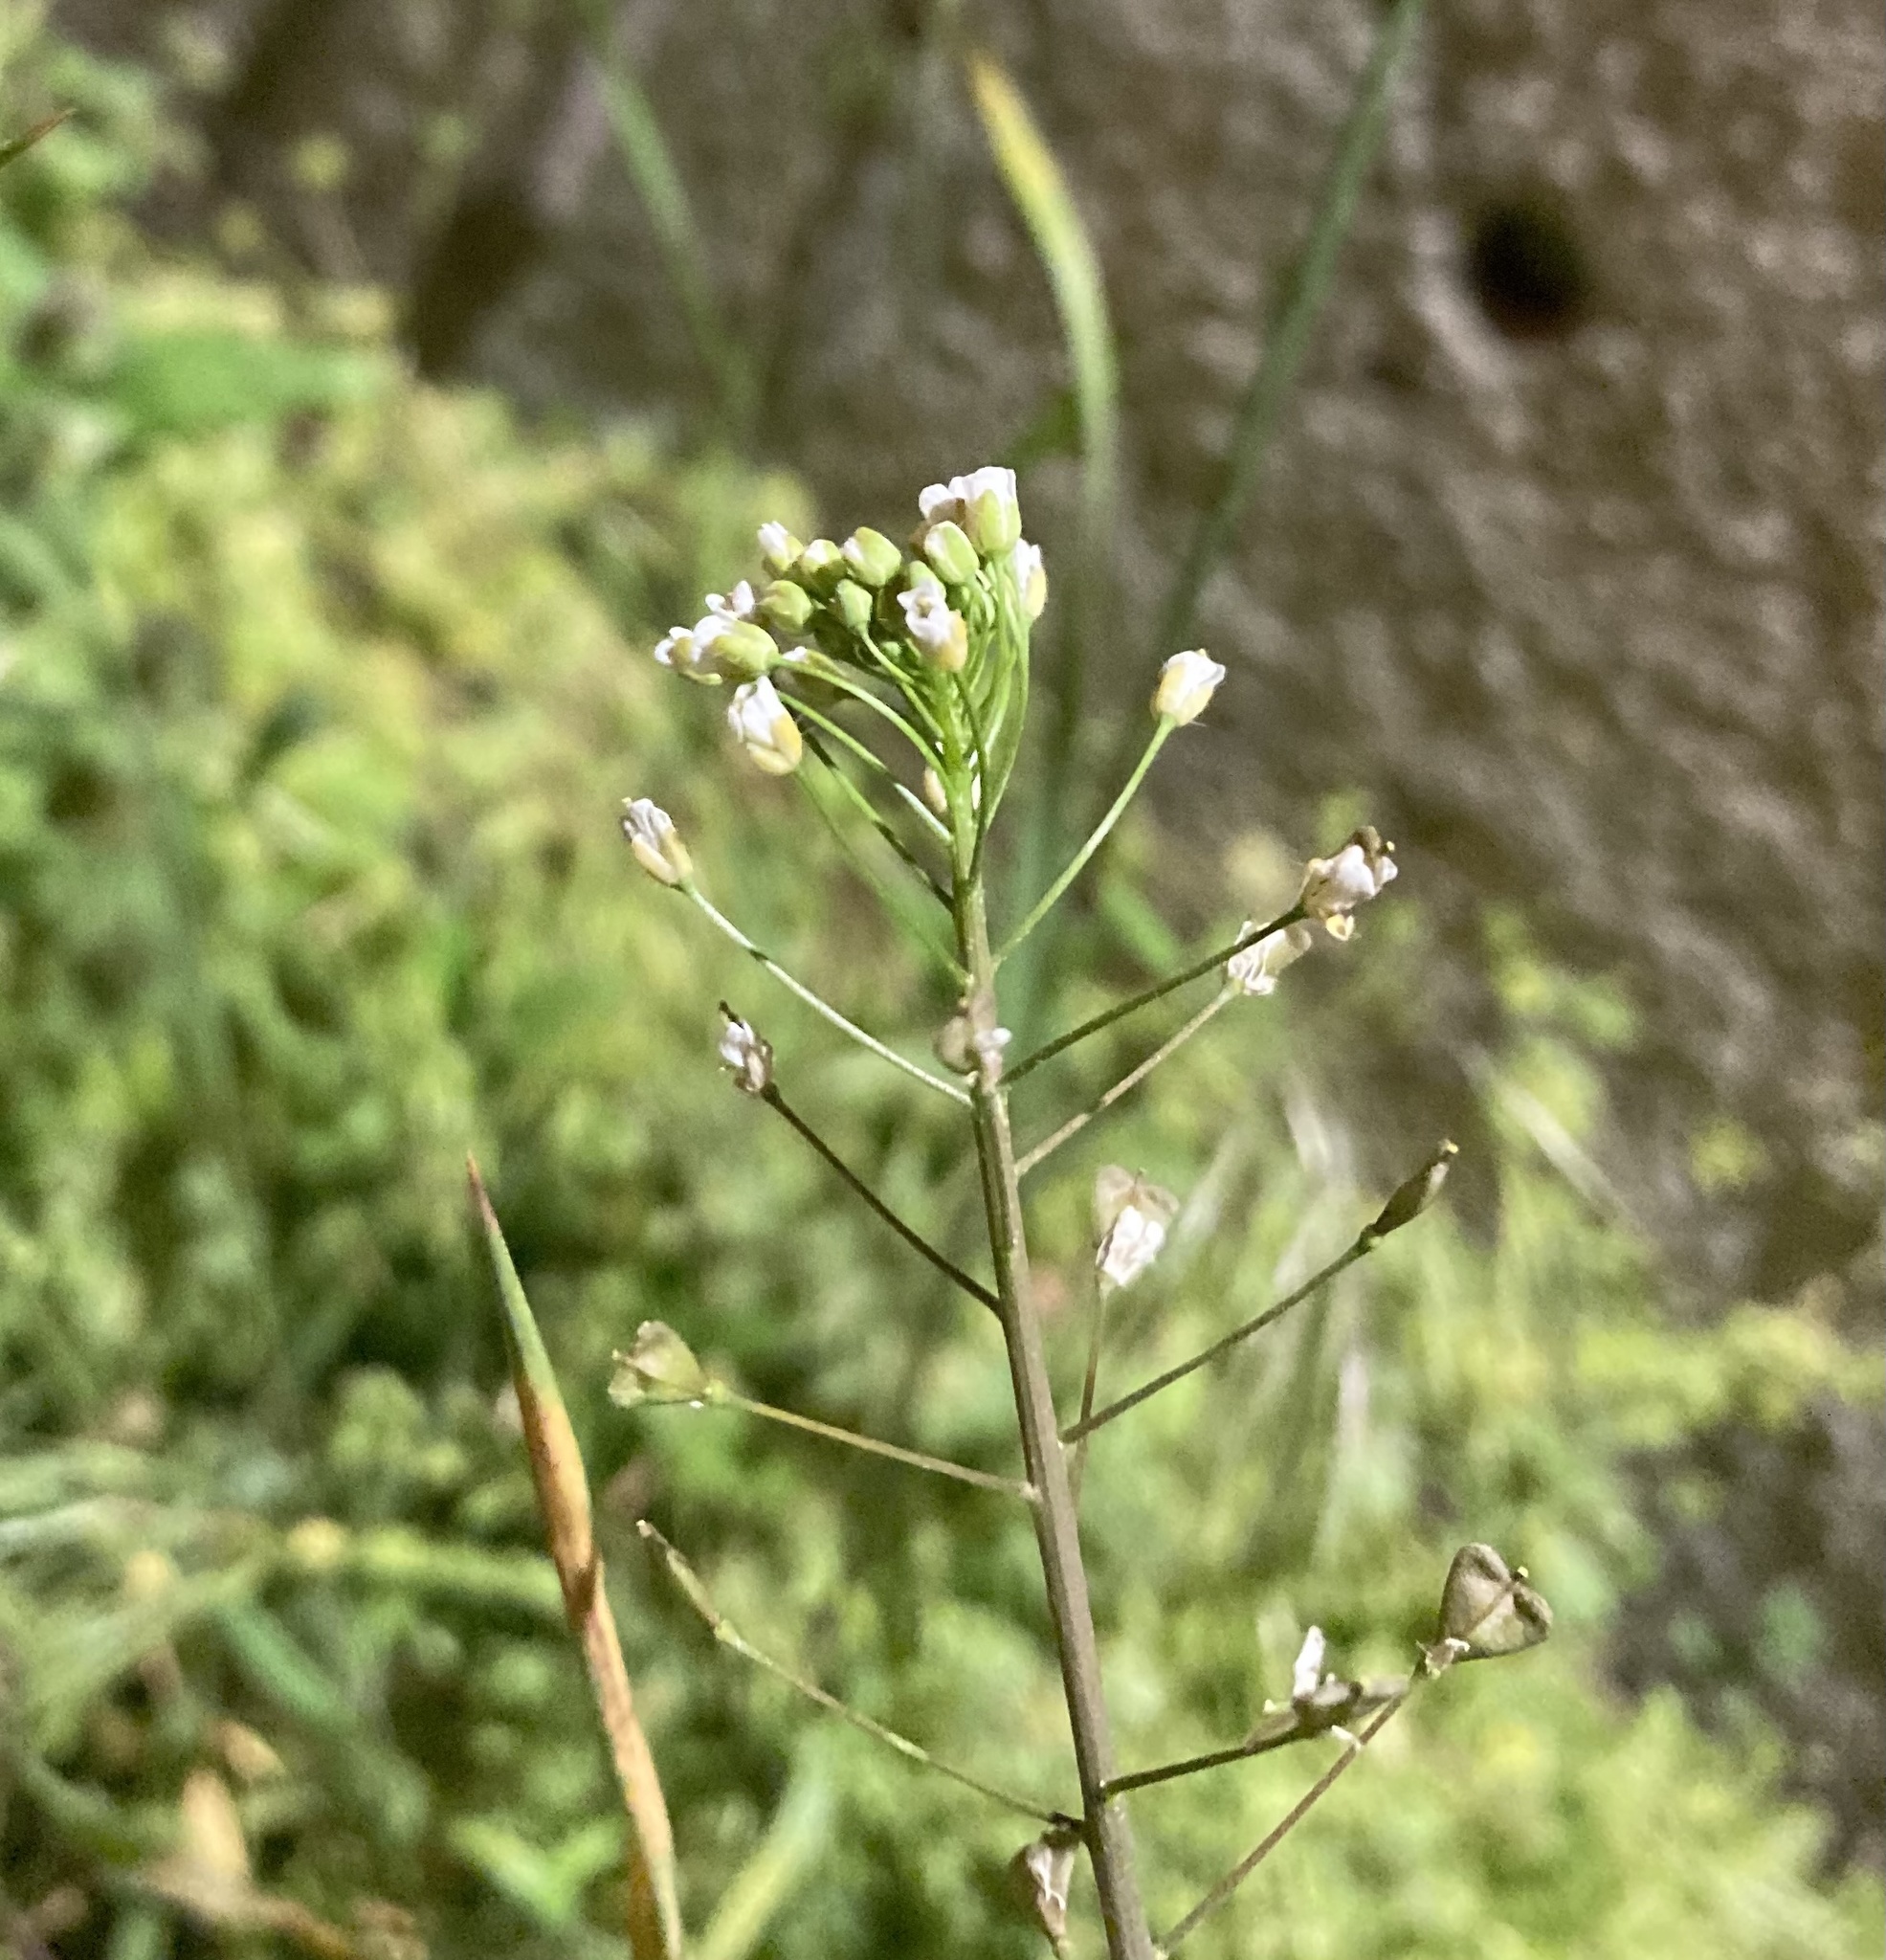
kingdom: Plantae
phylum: Tracheophyta
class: Magnoliopsida
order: Brassicales
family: Brassicaceae
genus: Capsella
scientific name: Capsella bursa-pastoris
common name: Shepherd's purse
